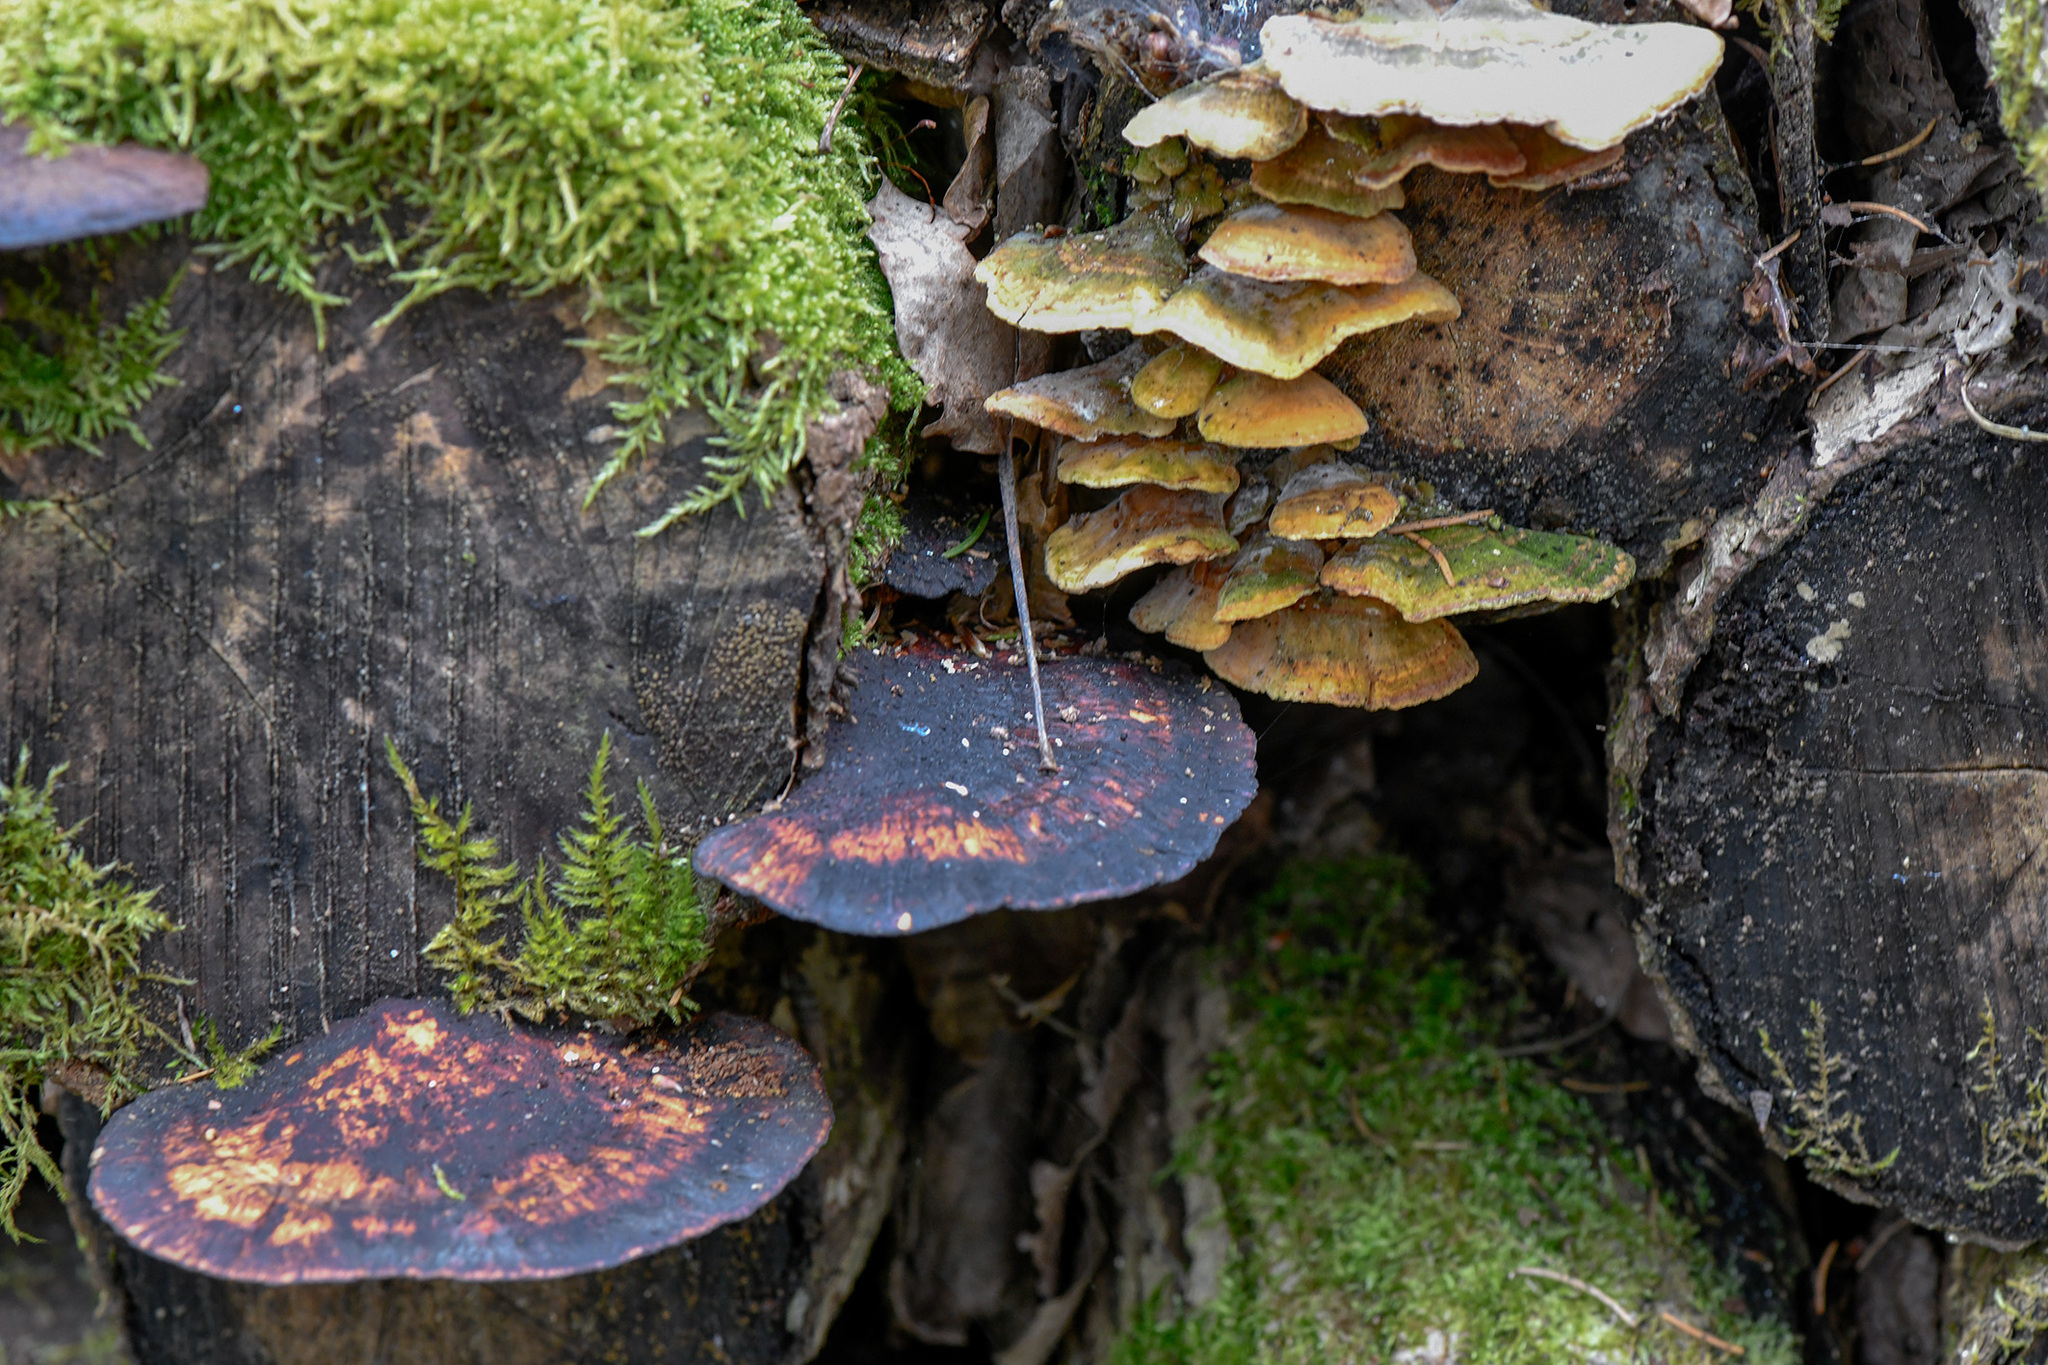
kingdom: Fungi
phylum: Basidiomycota
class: Agaricomycetes
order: Polyporales
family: Polyporaceae
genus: Daedaleopsis
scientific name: Daedaleopsis confragosa
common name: Blushing bracket
